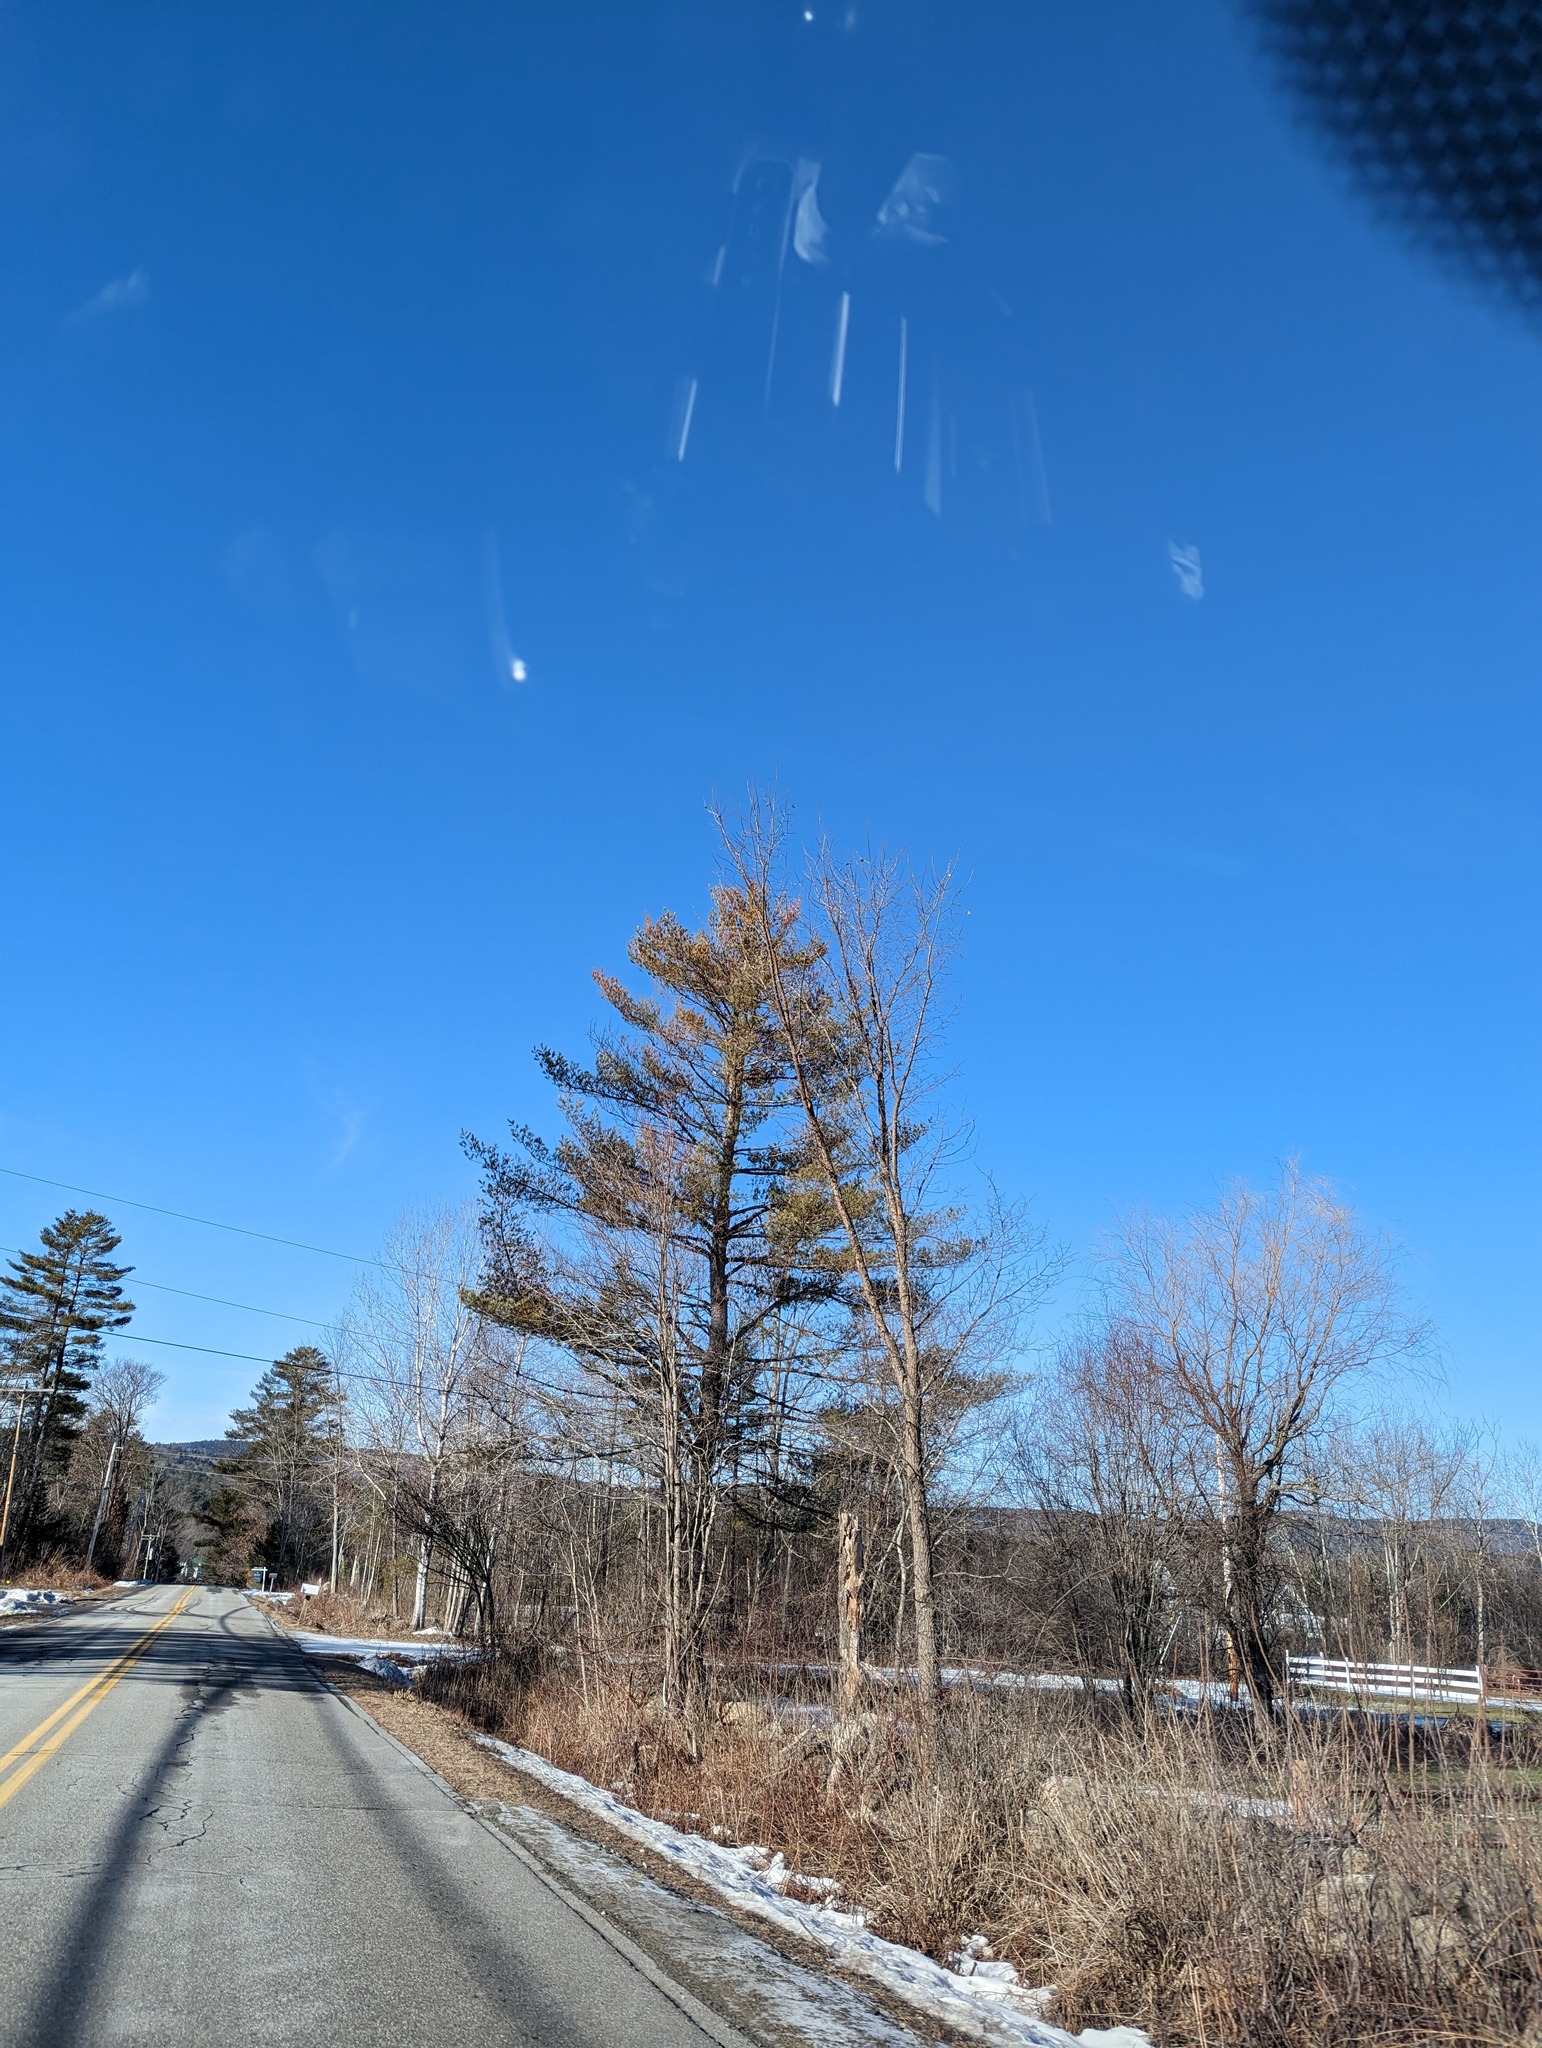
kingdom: Plantae
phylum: Tracheophyta
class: Pinopsida
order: Pinales
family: Pinaceae
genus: Pinus
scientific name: Pinus strobus
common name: Weymouth pine
